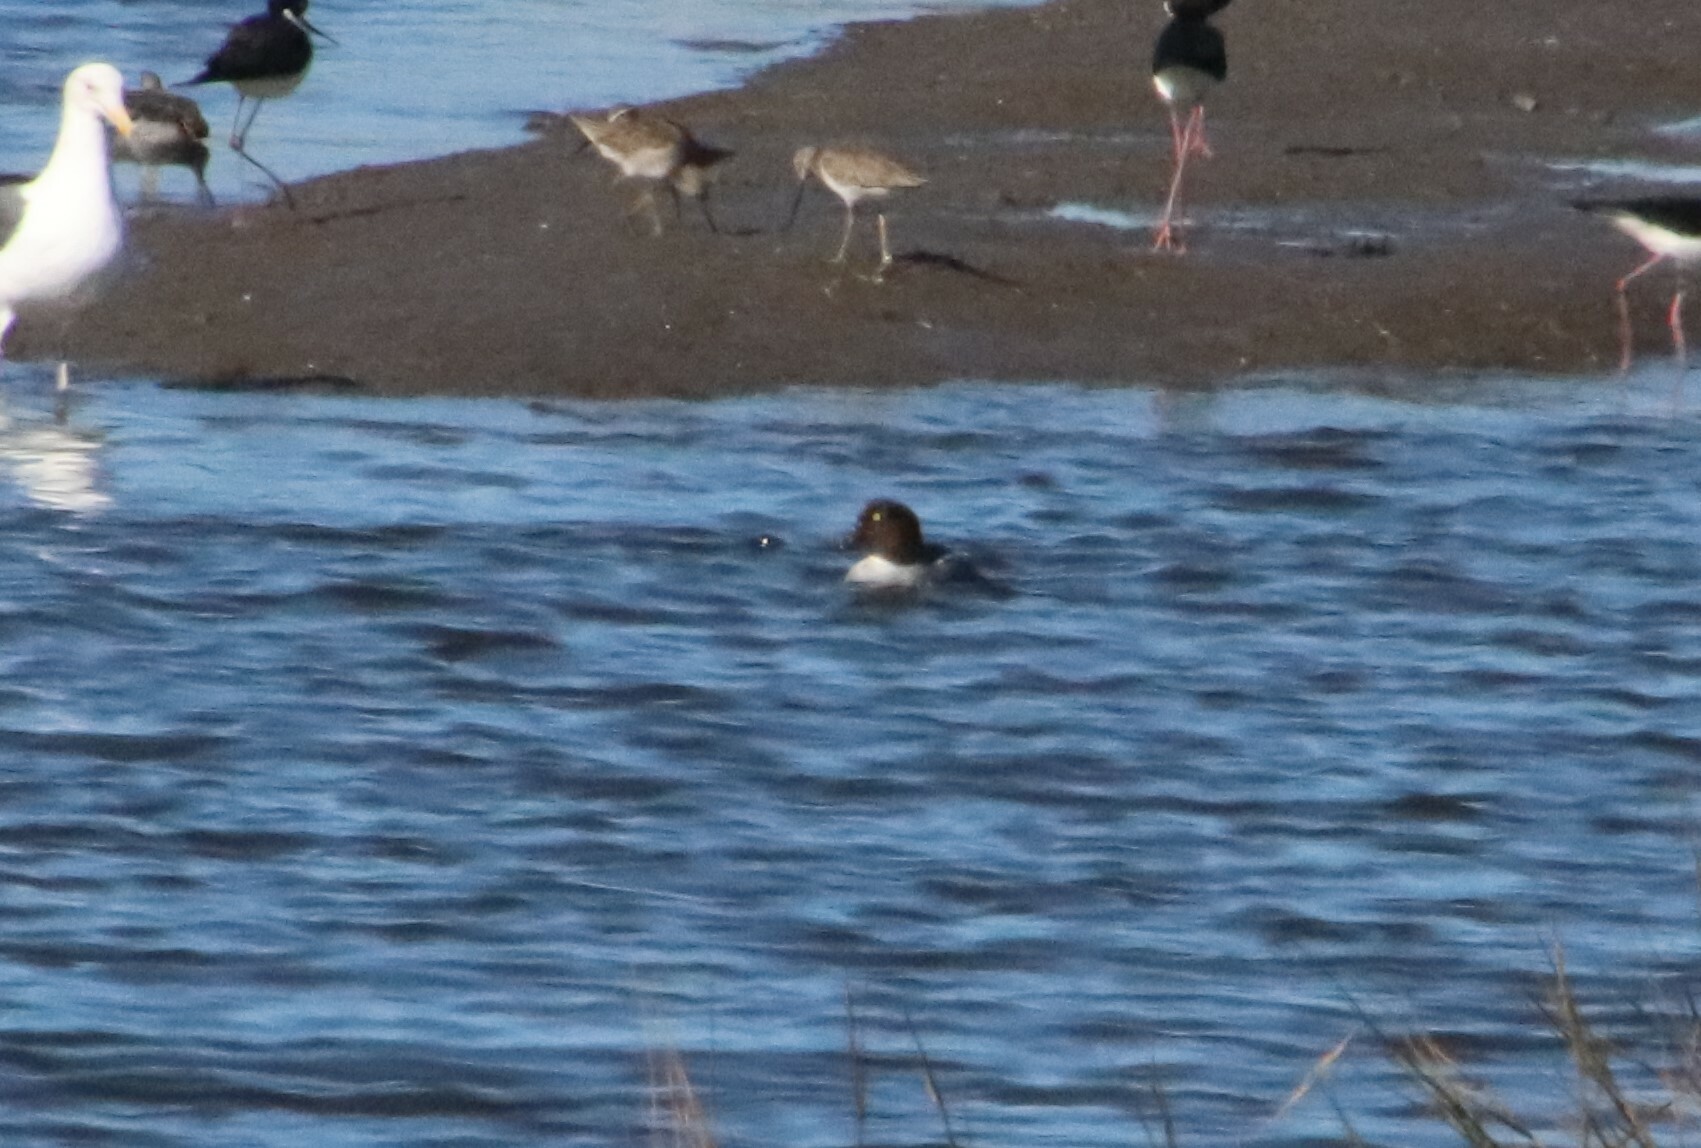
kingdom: Animalia
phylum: Chordata
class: Aves
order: Anseriformes
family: Anatidae
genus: Bucephala
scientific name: Bucephala clangula
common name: Common goldeneye
